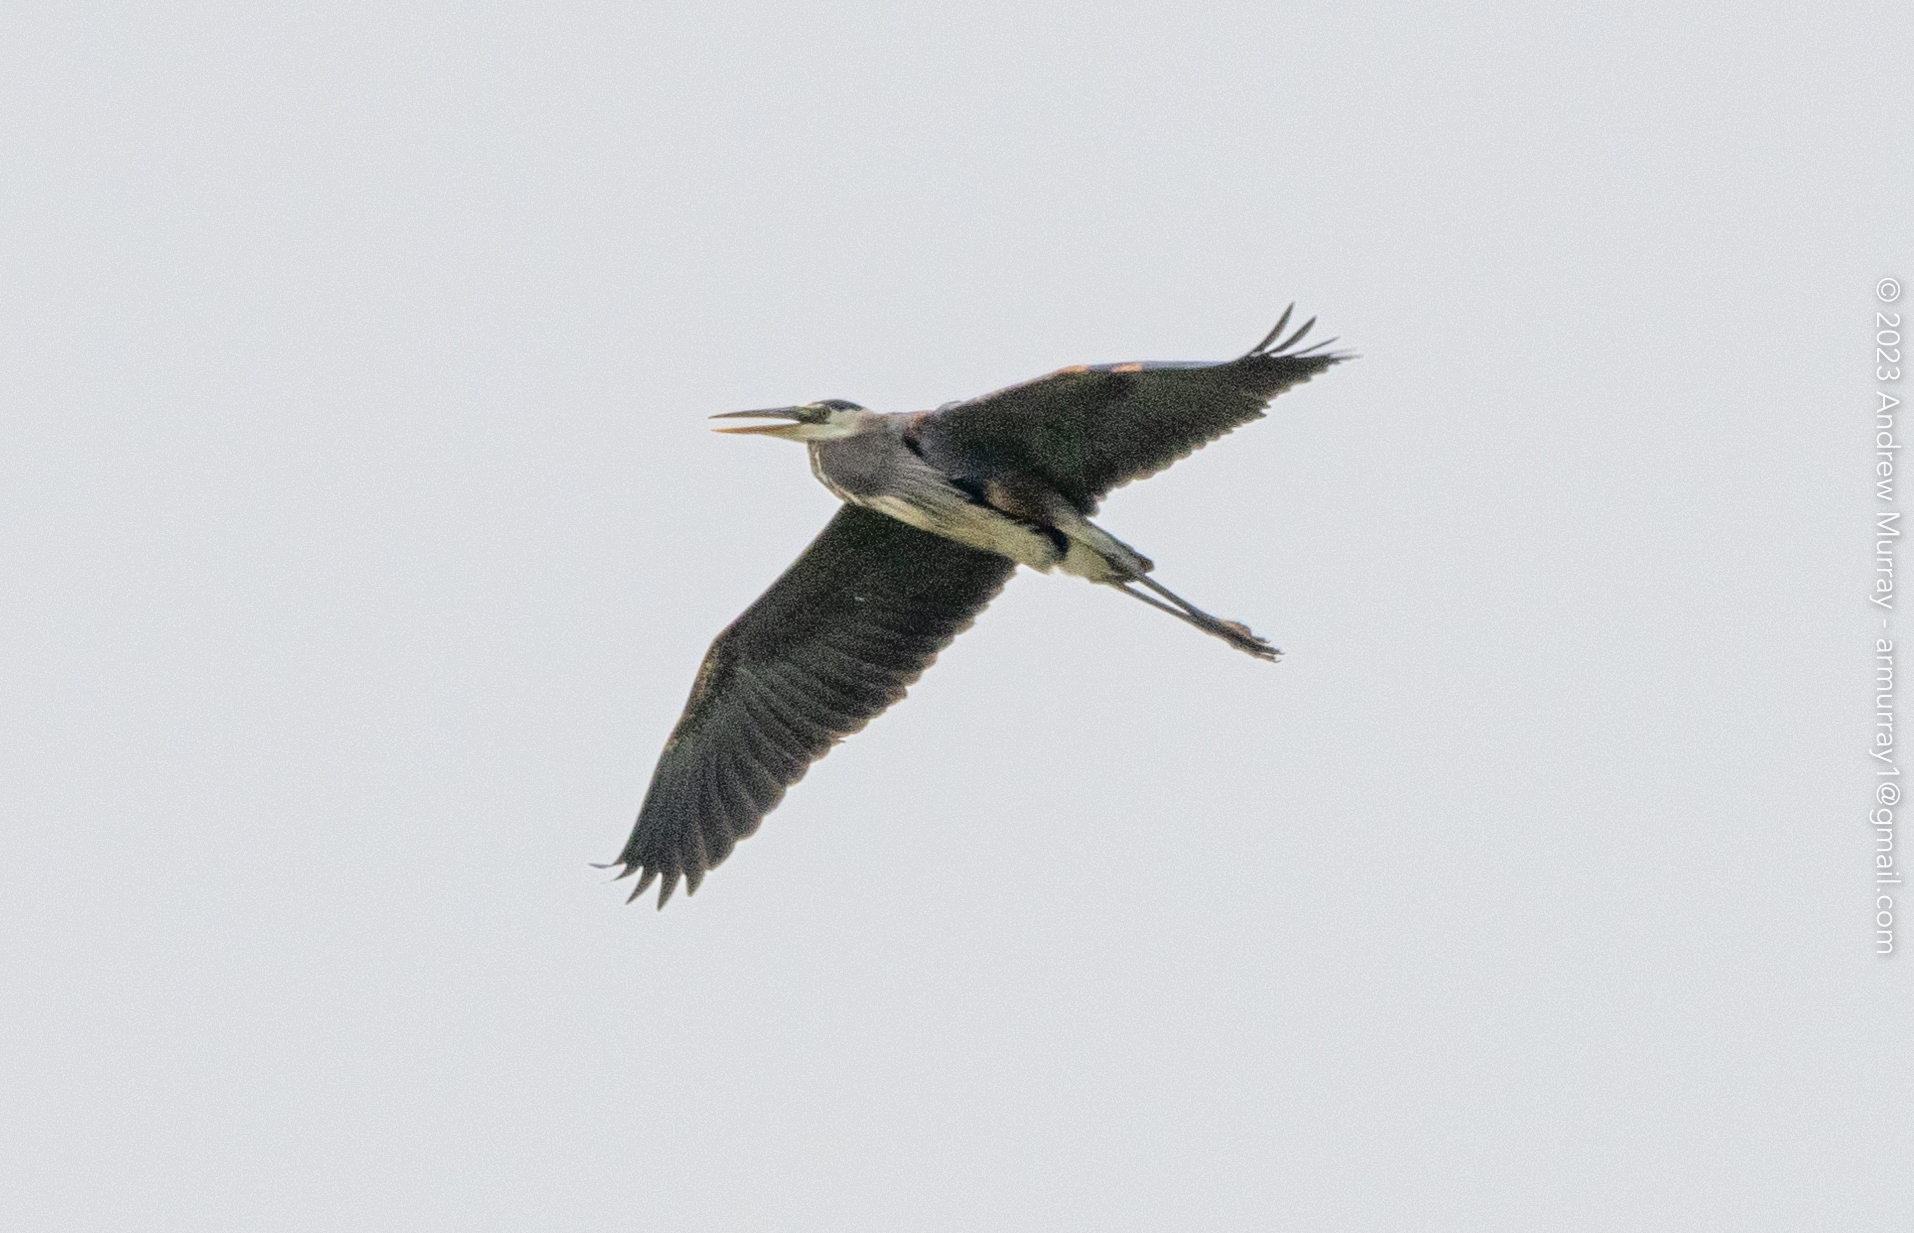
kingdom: Animalia
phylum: Chordata
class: Aves
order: Pelecaniformes
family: Ardeidae
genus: Ardea
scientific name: Ardea herodias
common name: Great blue heron
